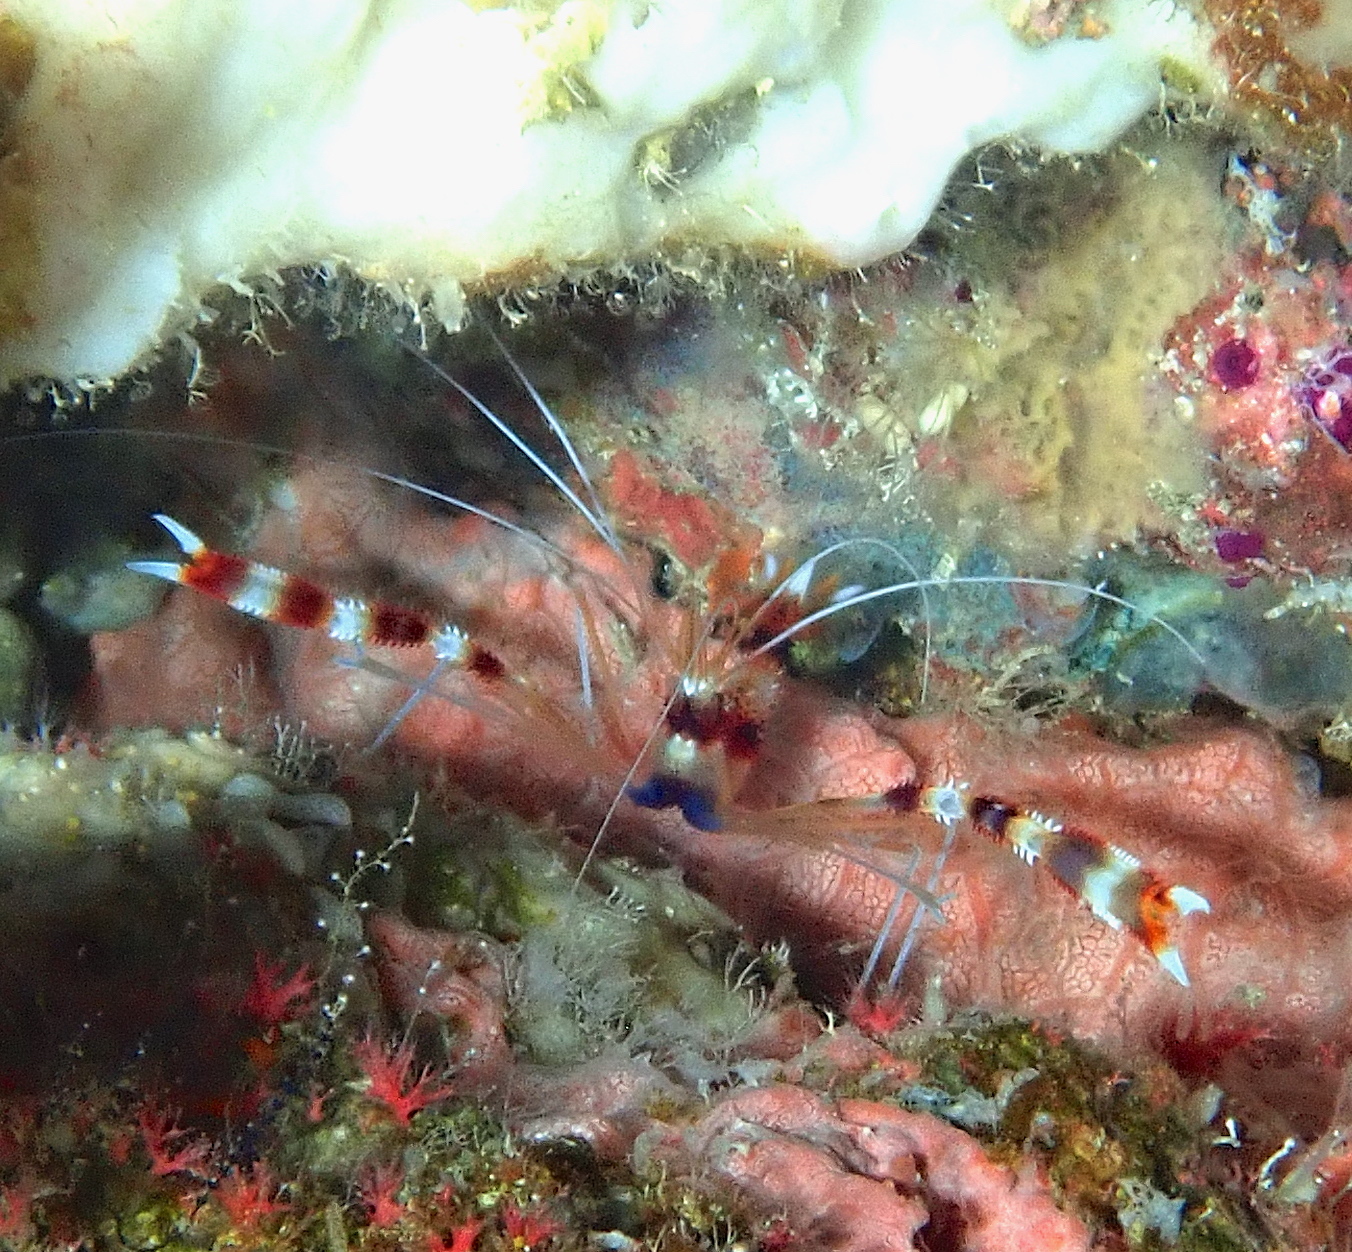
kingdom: Animalia
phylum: Arthropoda
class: Malacostraca
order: Decapoda
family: Stenopodidae
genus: Stenopus
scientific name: Stenopus hispidus
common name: Banded coral shrimp
